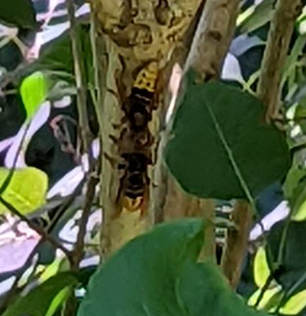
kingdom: Animalia
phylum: Arthropoda
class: Insecta
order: Hymenoptera
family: Vespidae
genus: Vespa
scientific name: Vespa crabro
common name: Hornet
